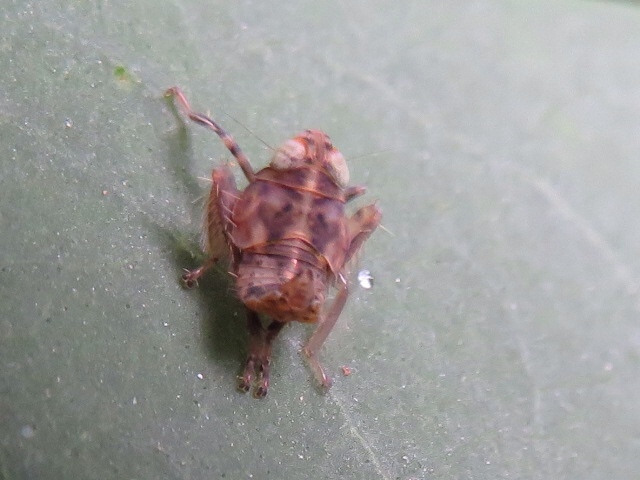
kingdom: Animalia
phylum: Arthropoda
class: Insecta
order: Hemiptera
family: Cicadellidae
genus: Jikradia
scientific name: Jikradia olitoria
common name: Coppery leafhopper
